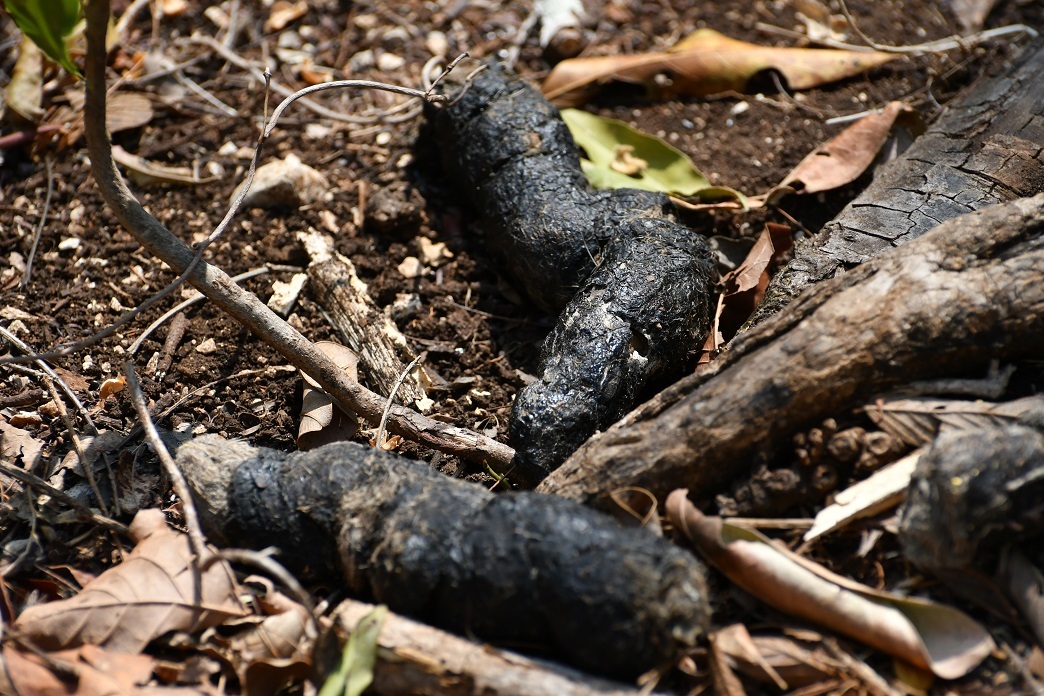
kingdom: Animalia
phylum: Chordata
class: Mammalia
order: Carnivora
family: Canidae
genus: Canis
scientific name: Canis latrans
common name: Coyote
